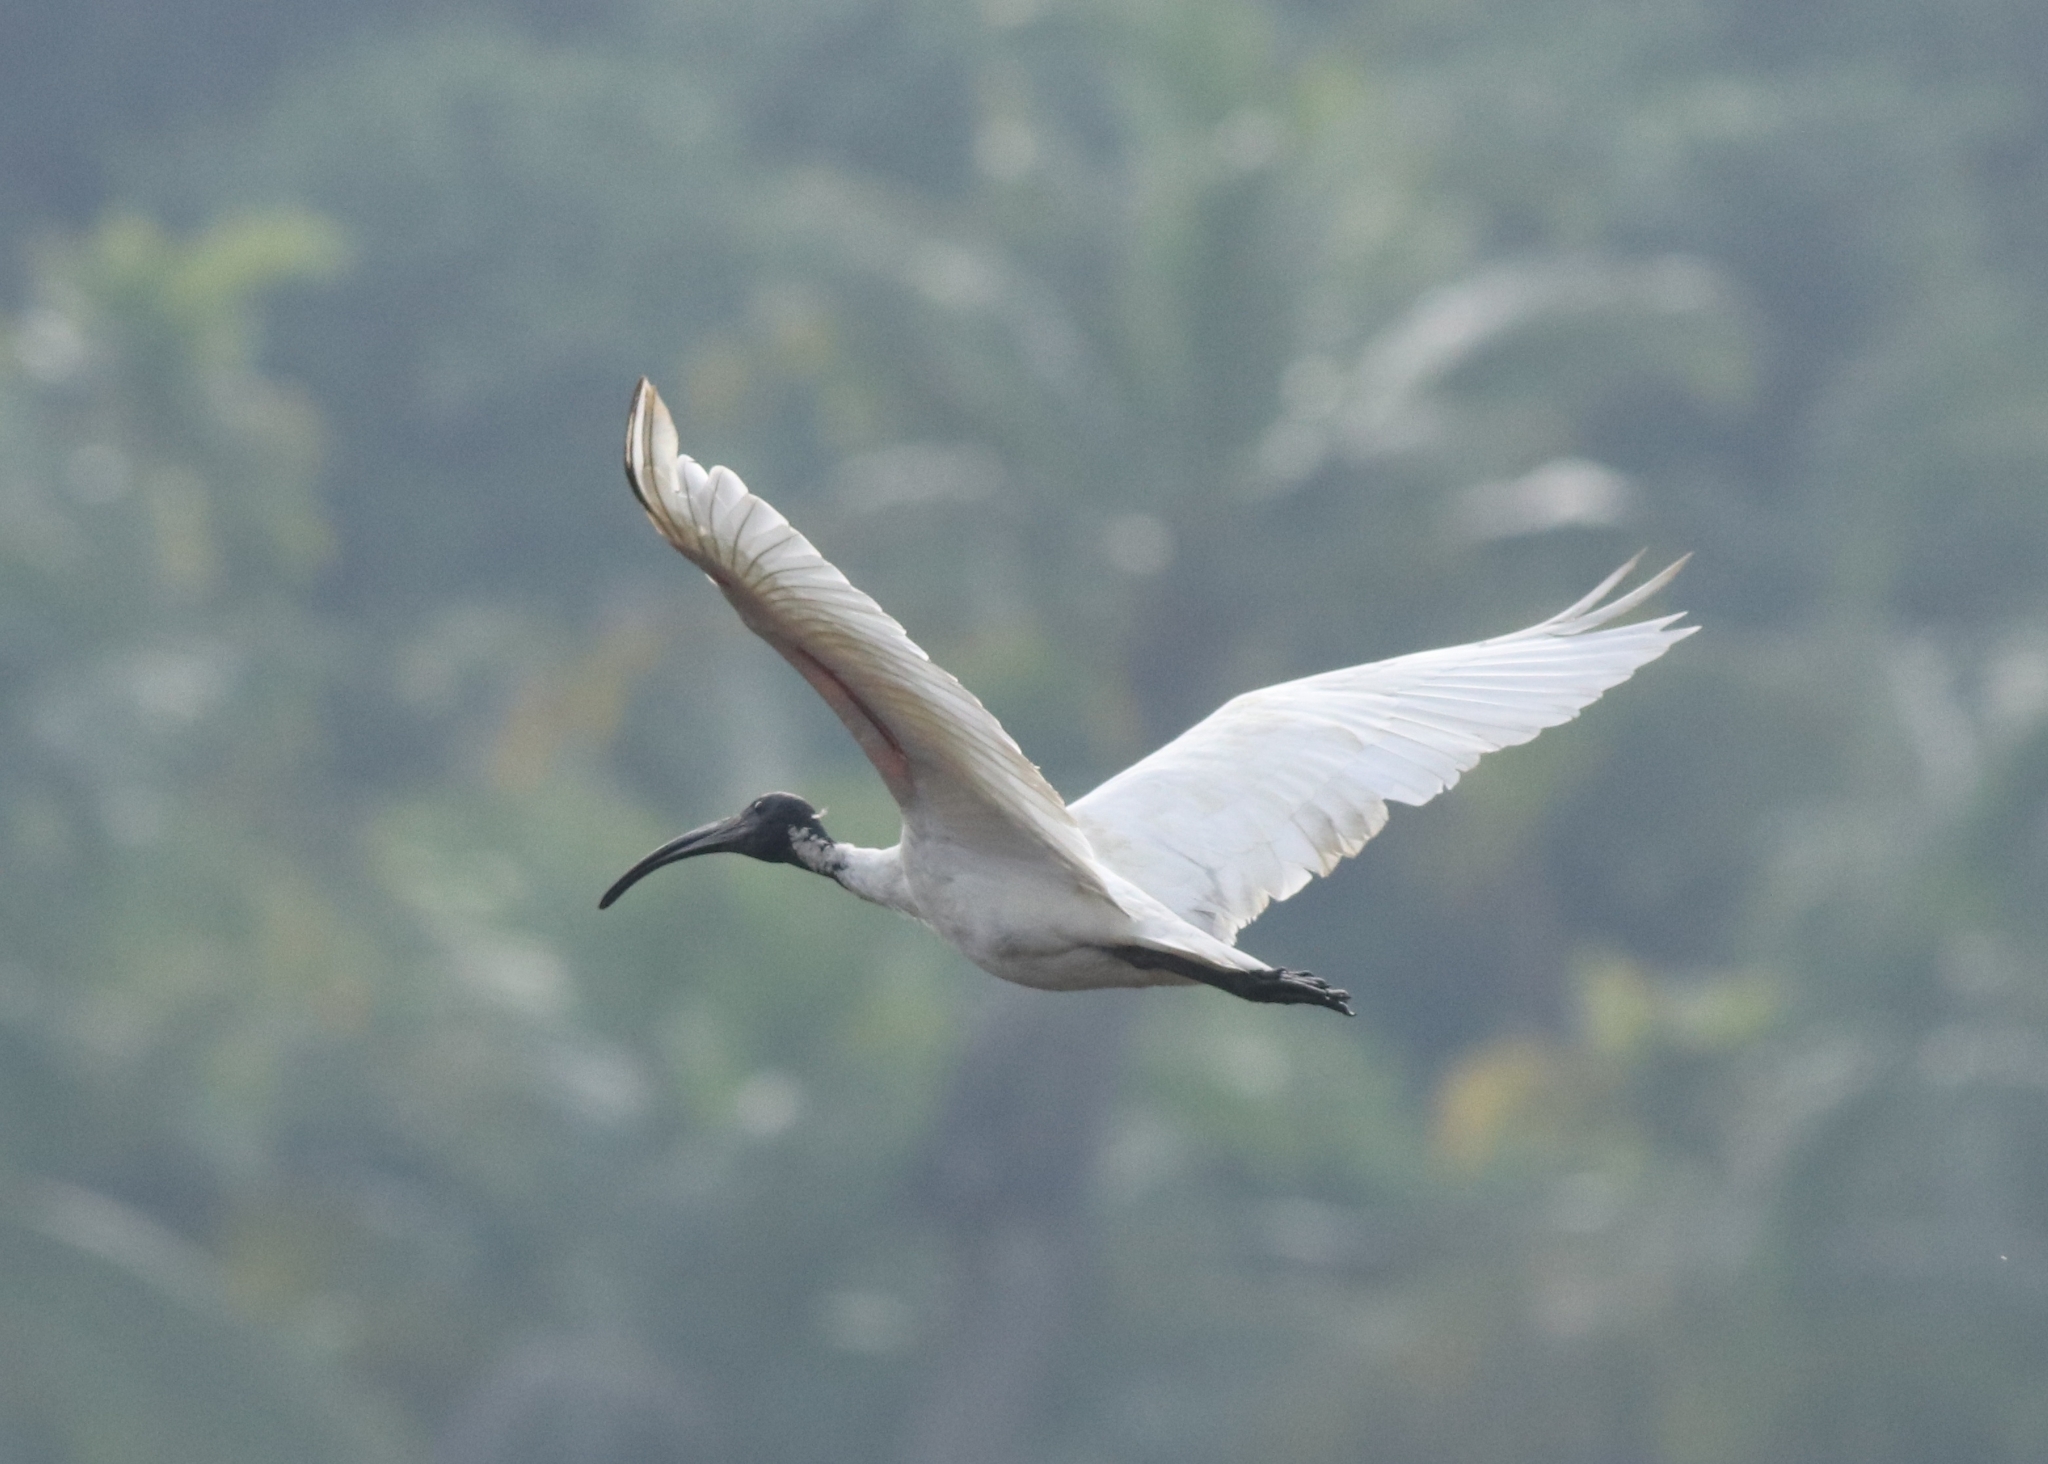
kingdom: Animalia
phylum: Chordata
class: Aves
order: Pelecaniformes
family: Threskiornithidae
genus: Threskiornis
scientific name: Threskiornis melanocephalus
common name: Black-headed ibis
